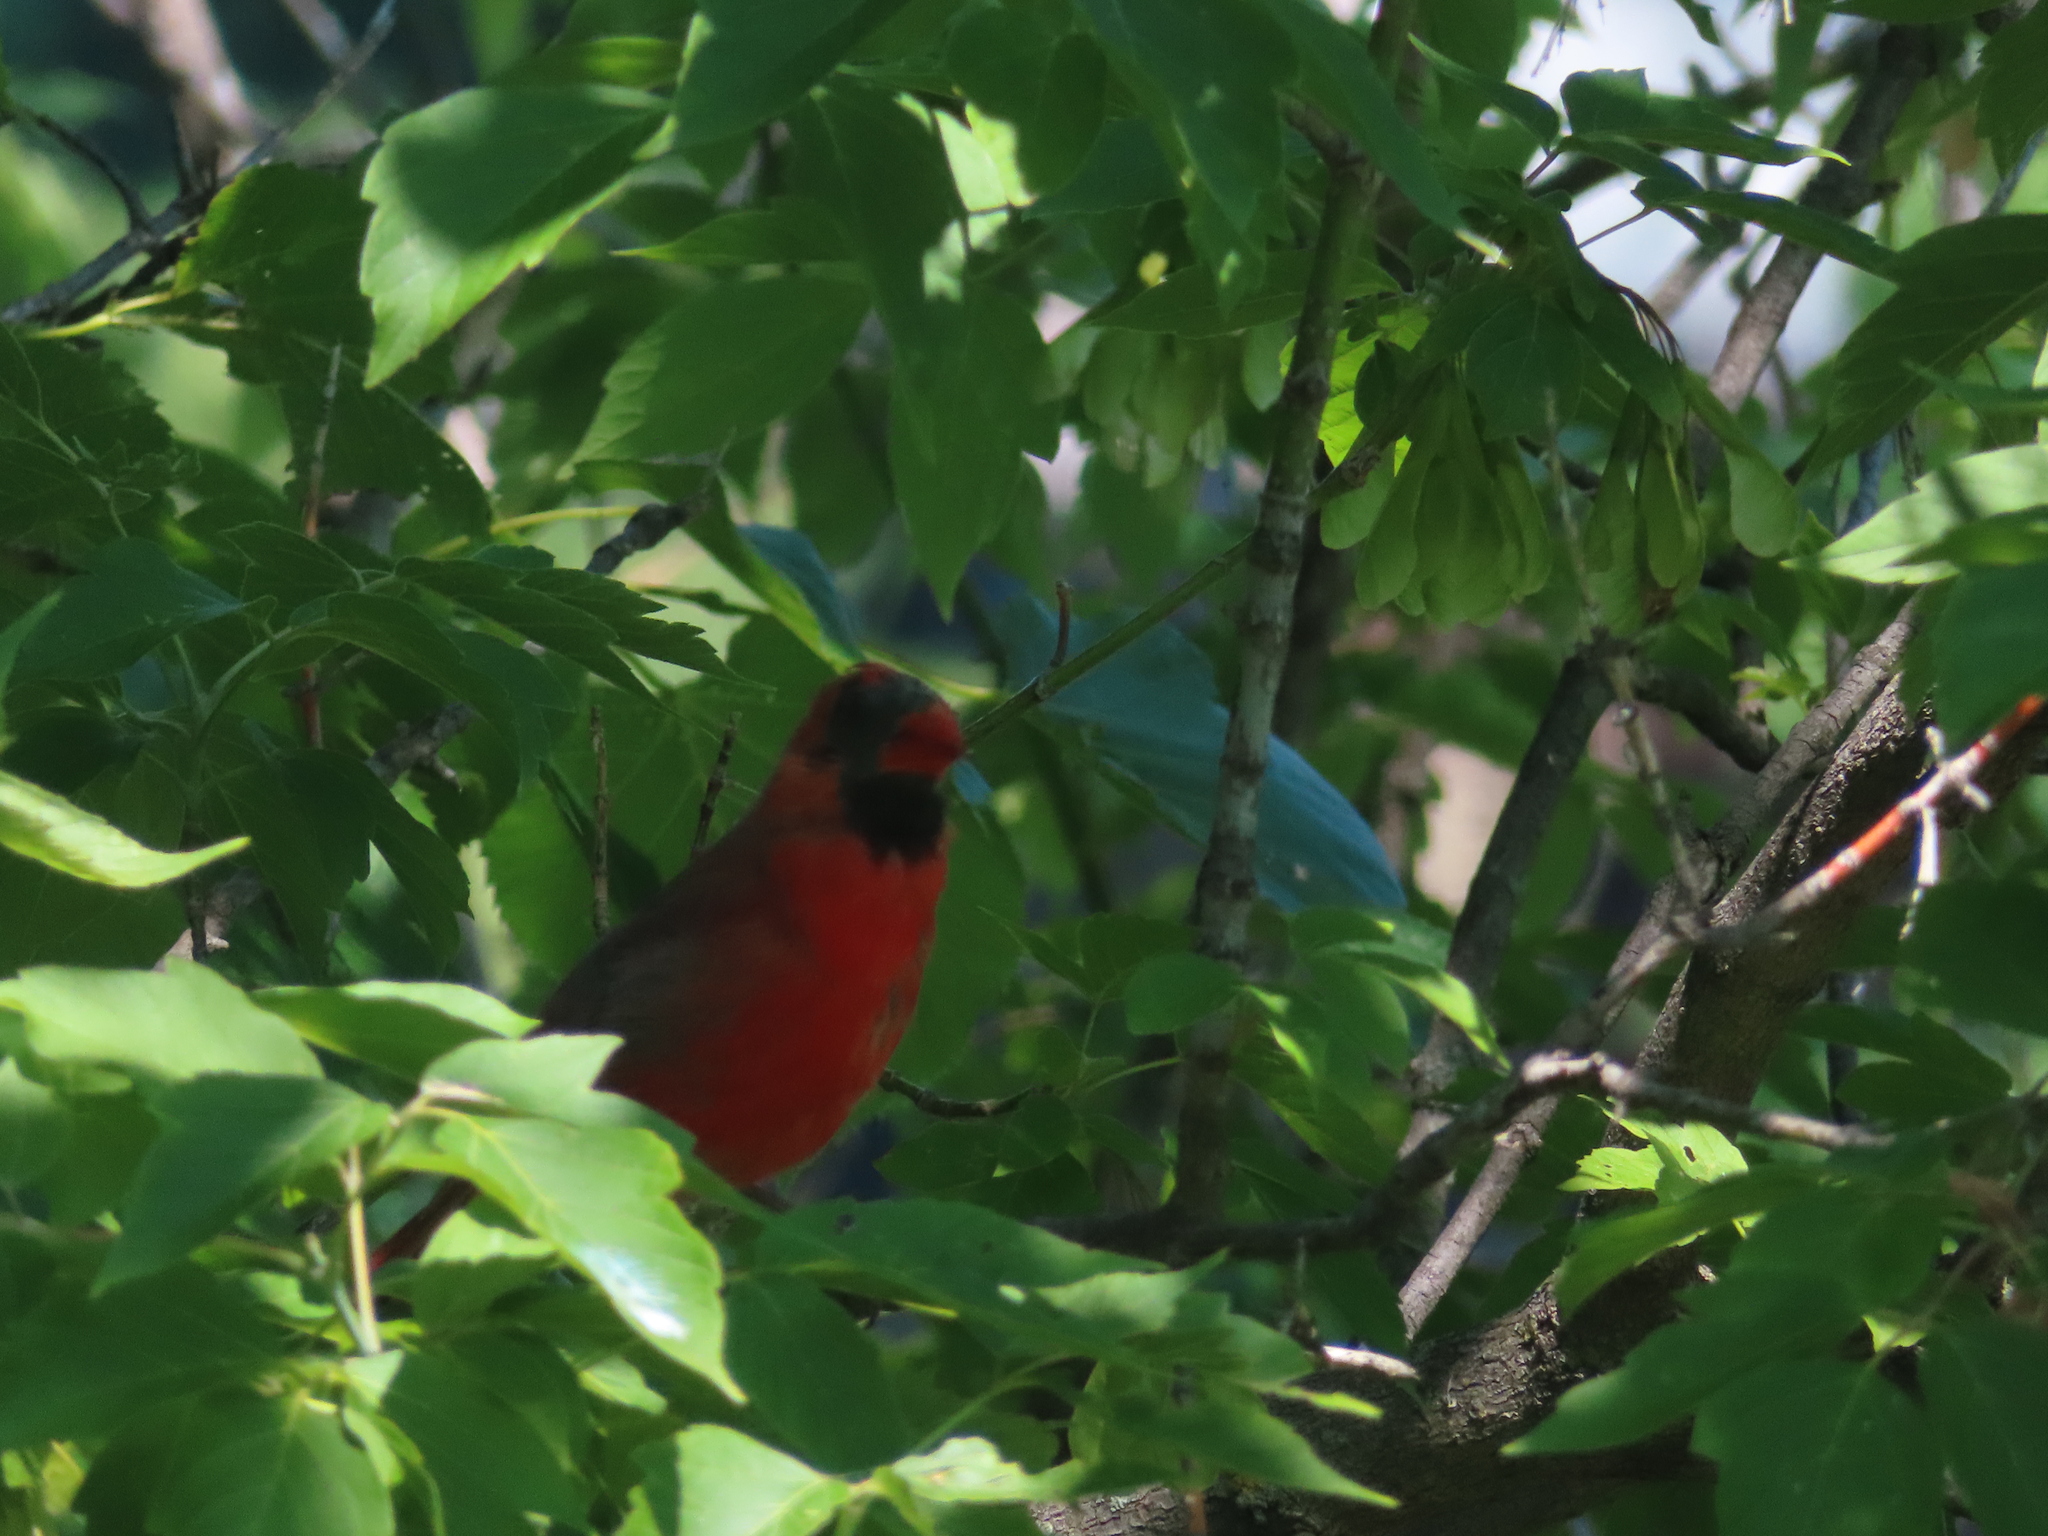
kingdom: Animalia
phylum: Chordata
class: Aves
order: Passeriformes
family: Cardinalidae
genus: Cardinalis
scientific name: Cardinalis cardinalis
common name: Northern cardinal
